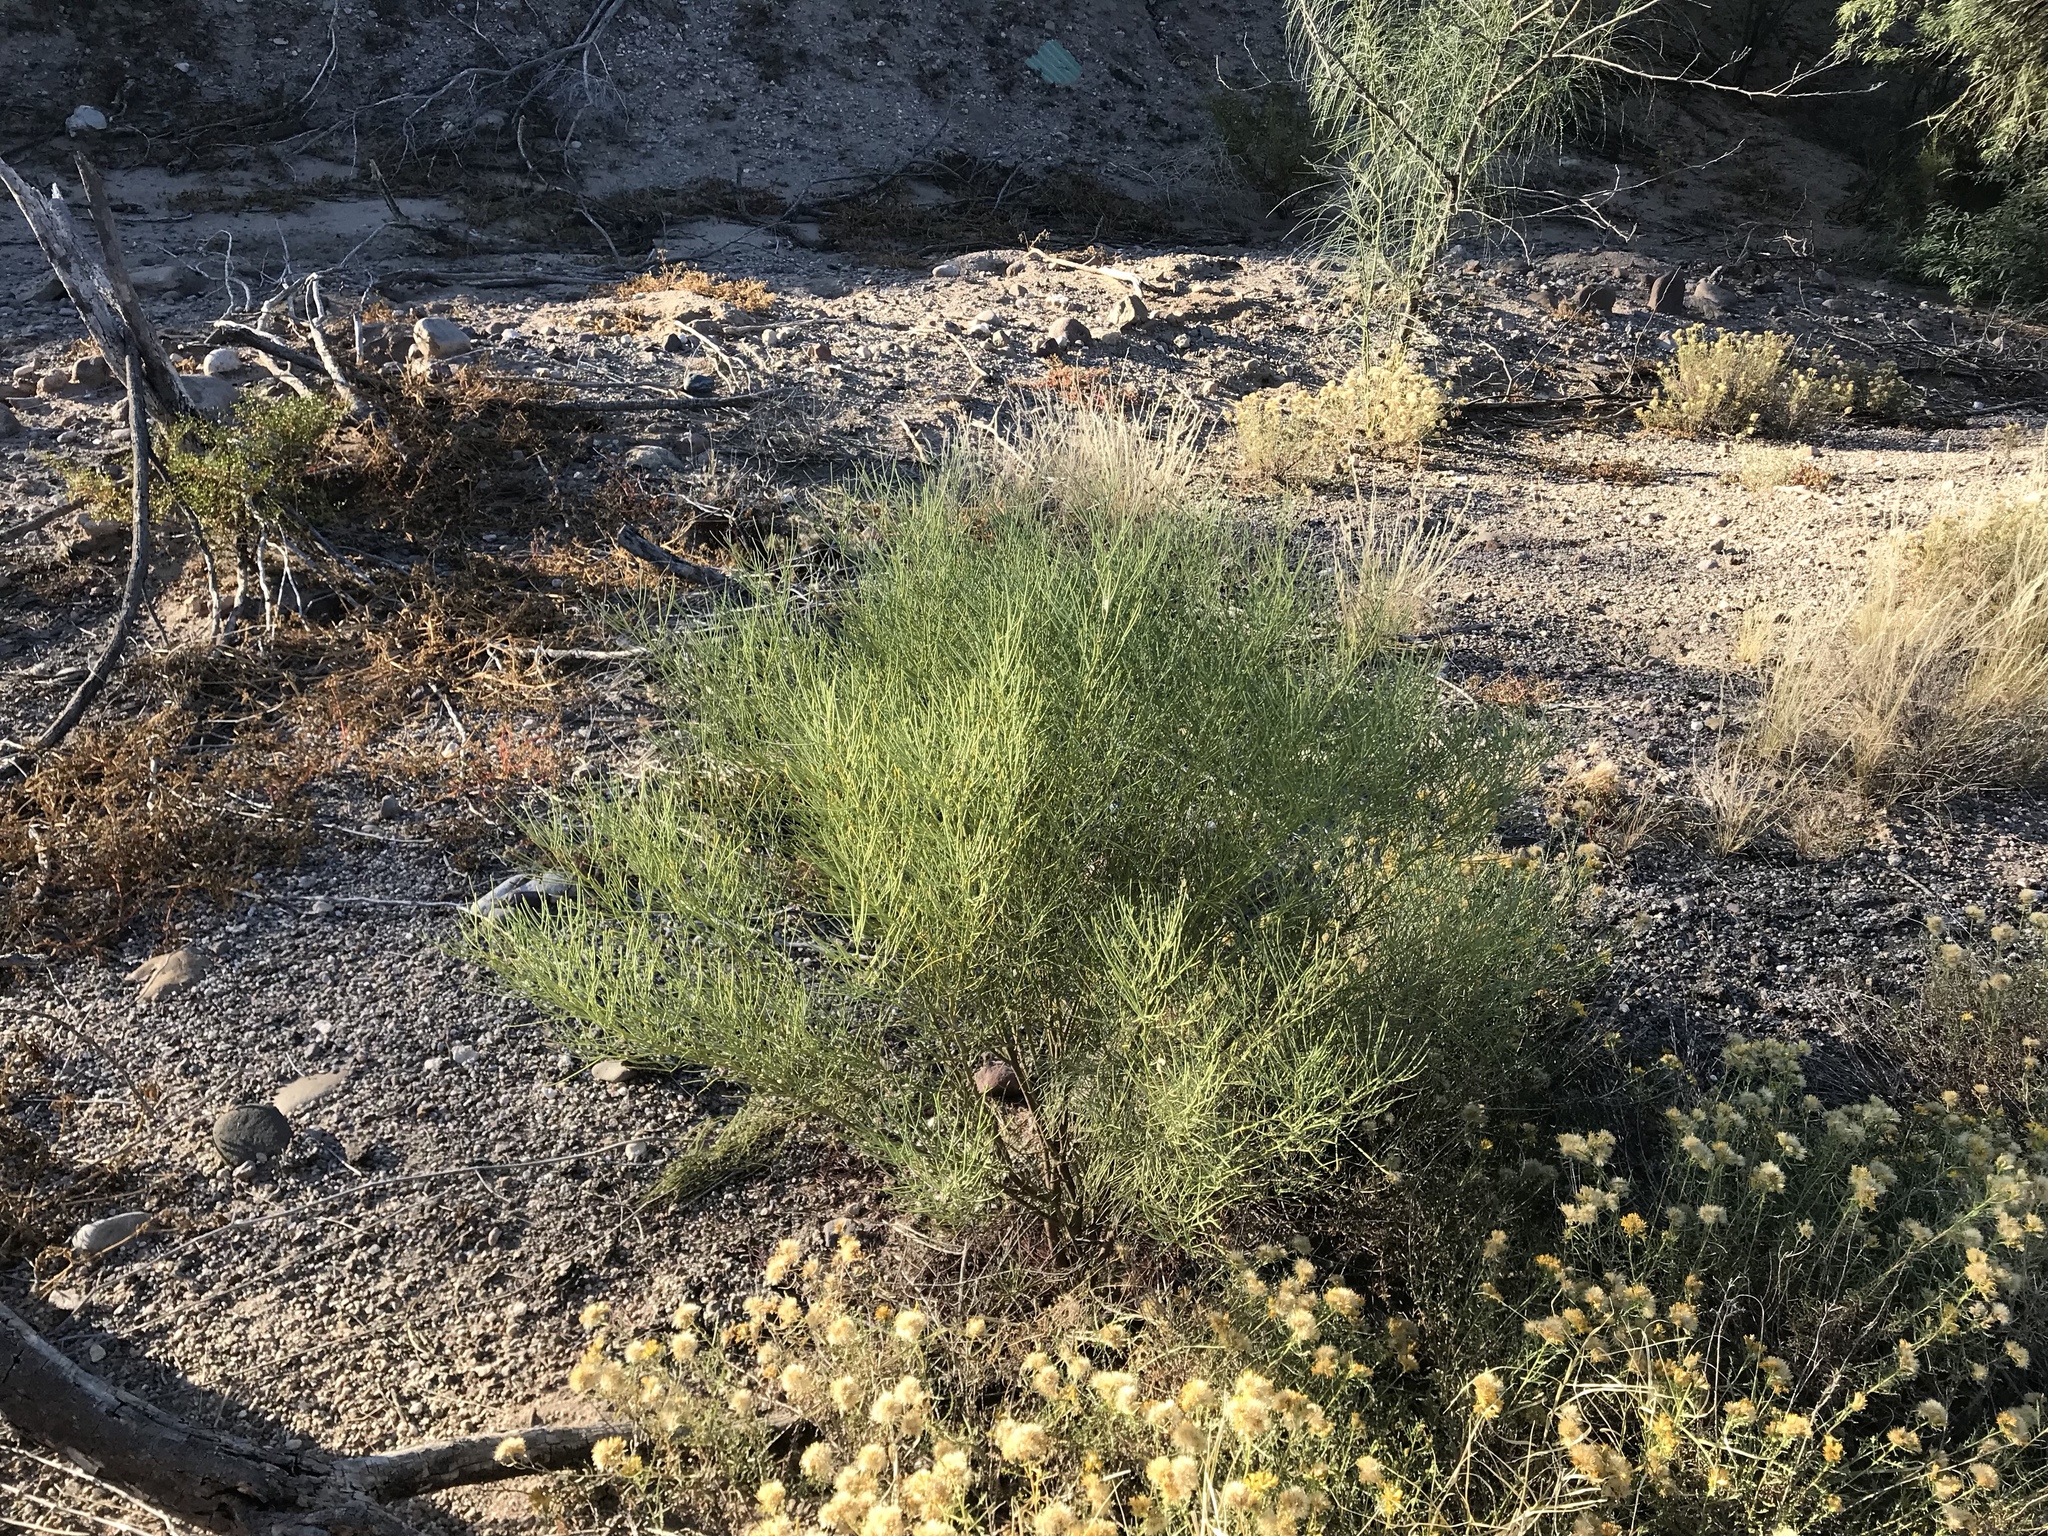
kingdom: Plantae
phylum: Tracheophyta
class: Magnoliopsida
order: Asterales
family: Asteraceae
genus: Baccharis
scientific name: Baccharis sarothroides
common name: Desert-broom
